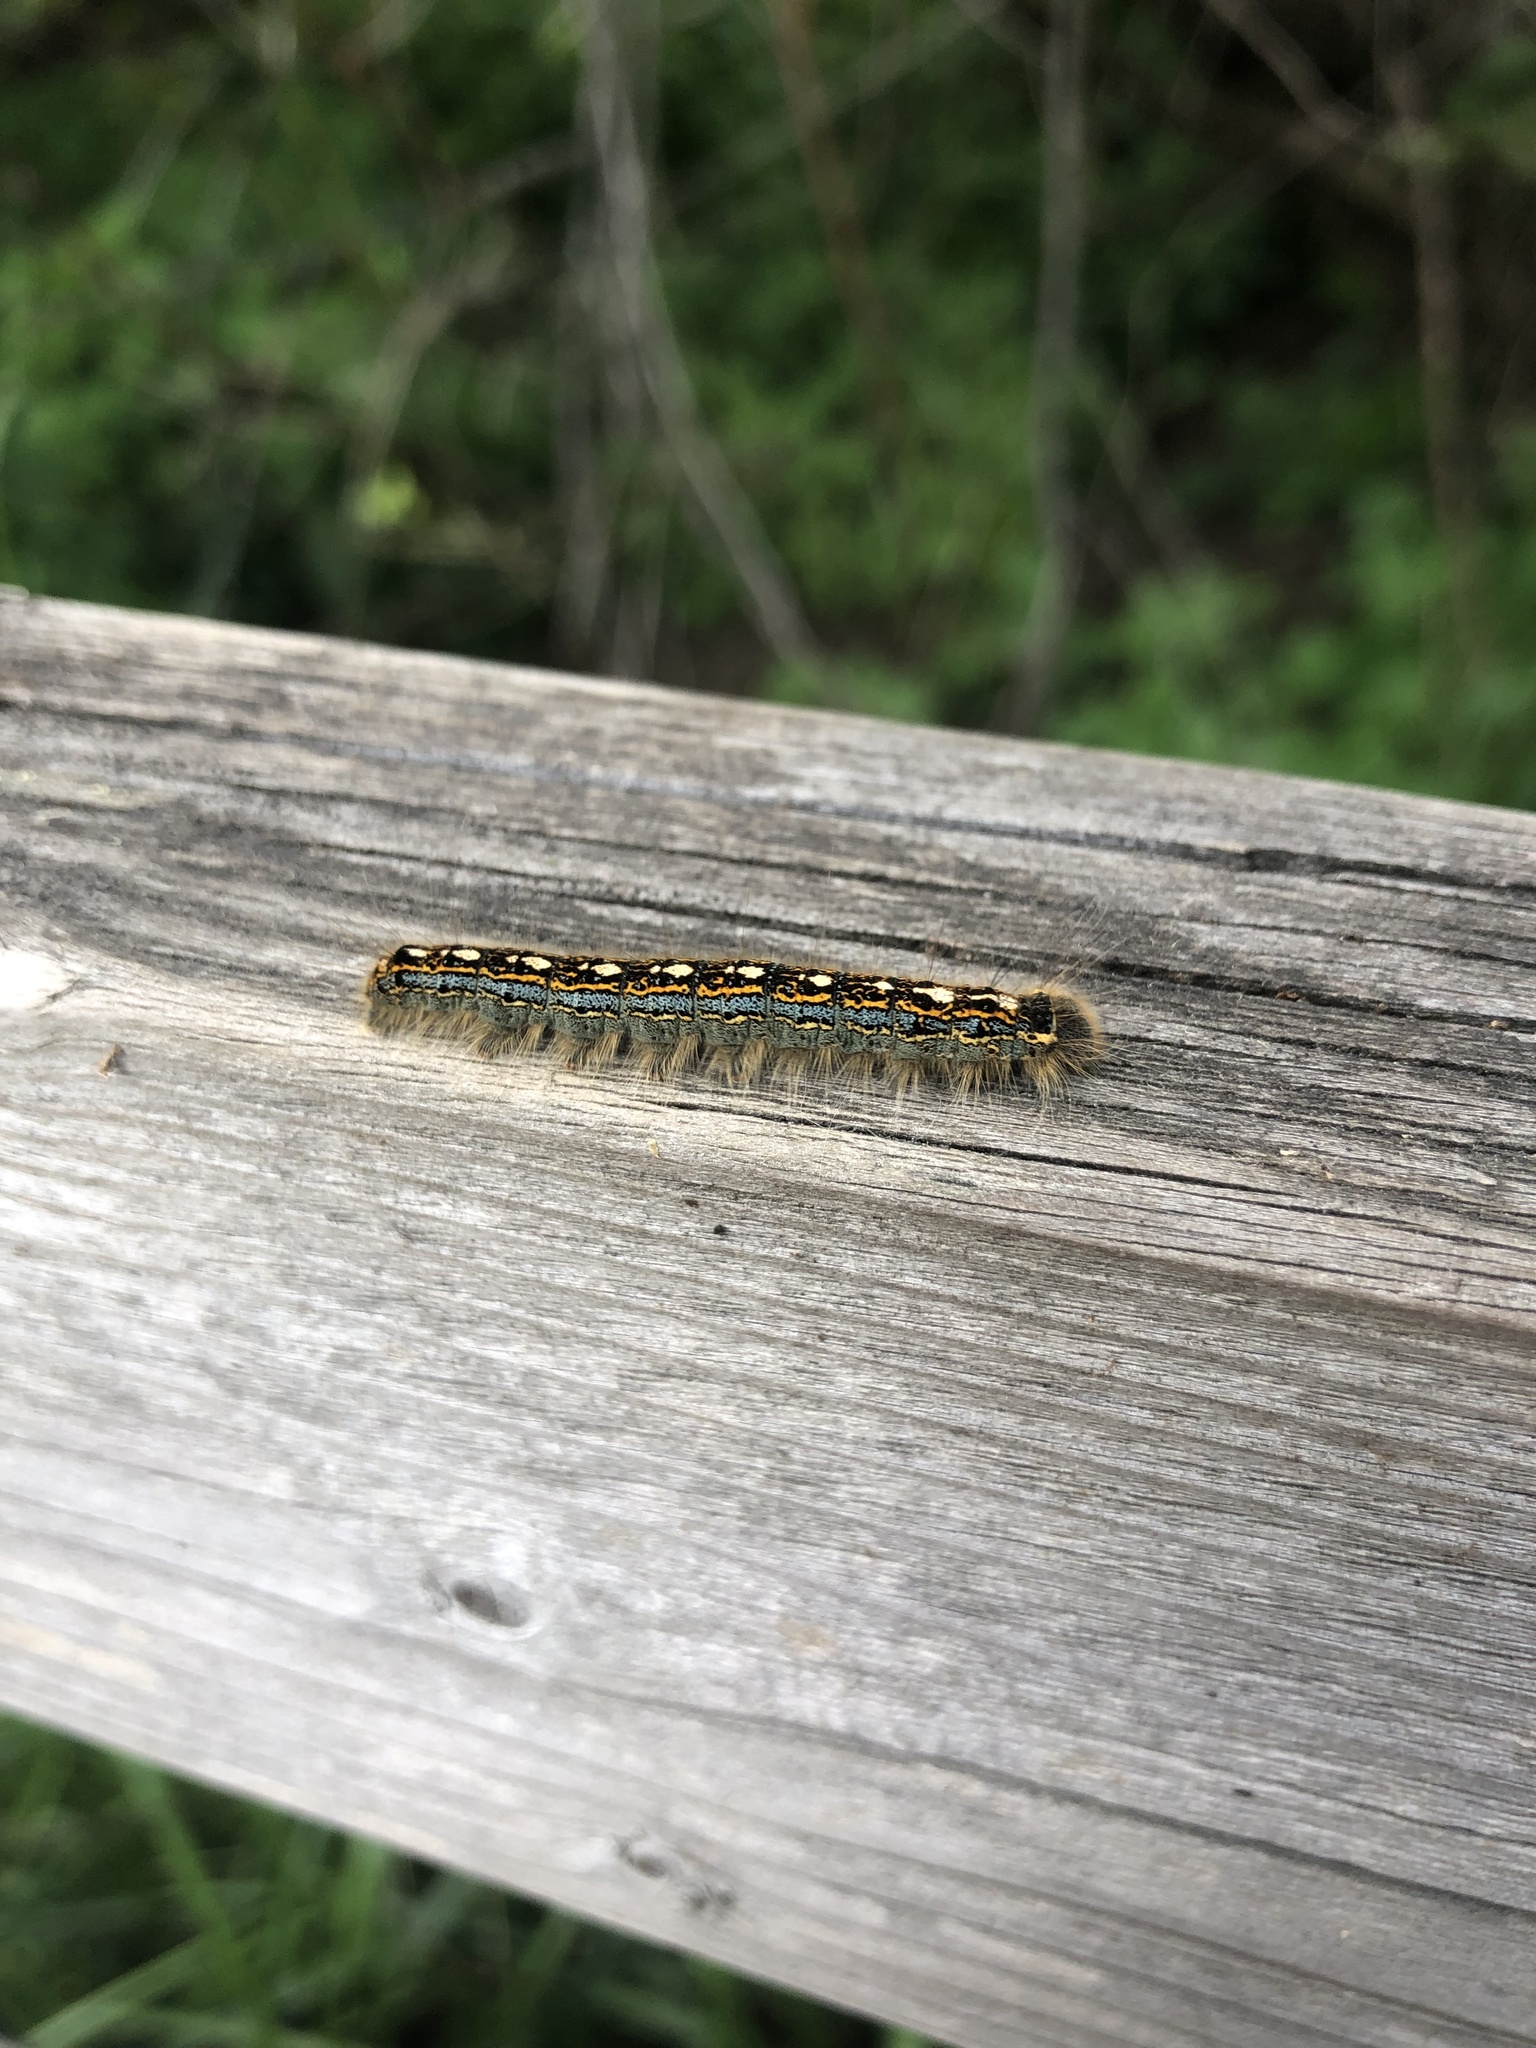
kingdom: Animalia
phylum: Arthropoda
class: Insecta
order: Lepidoptera
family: Lasiocampidae
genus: Malacosoma
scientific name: Malacosoma disstria
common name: Forest tent caterpillar
